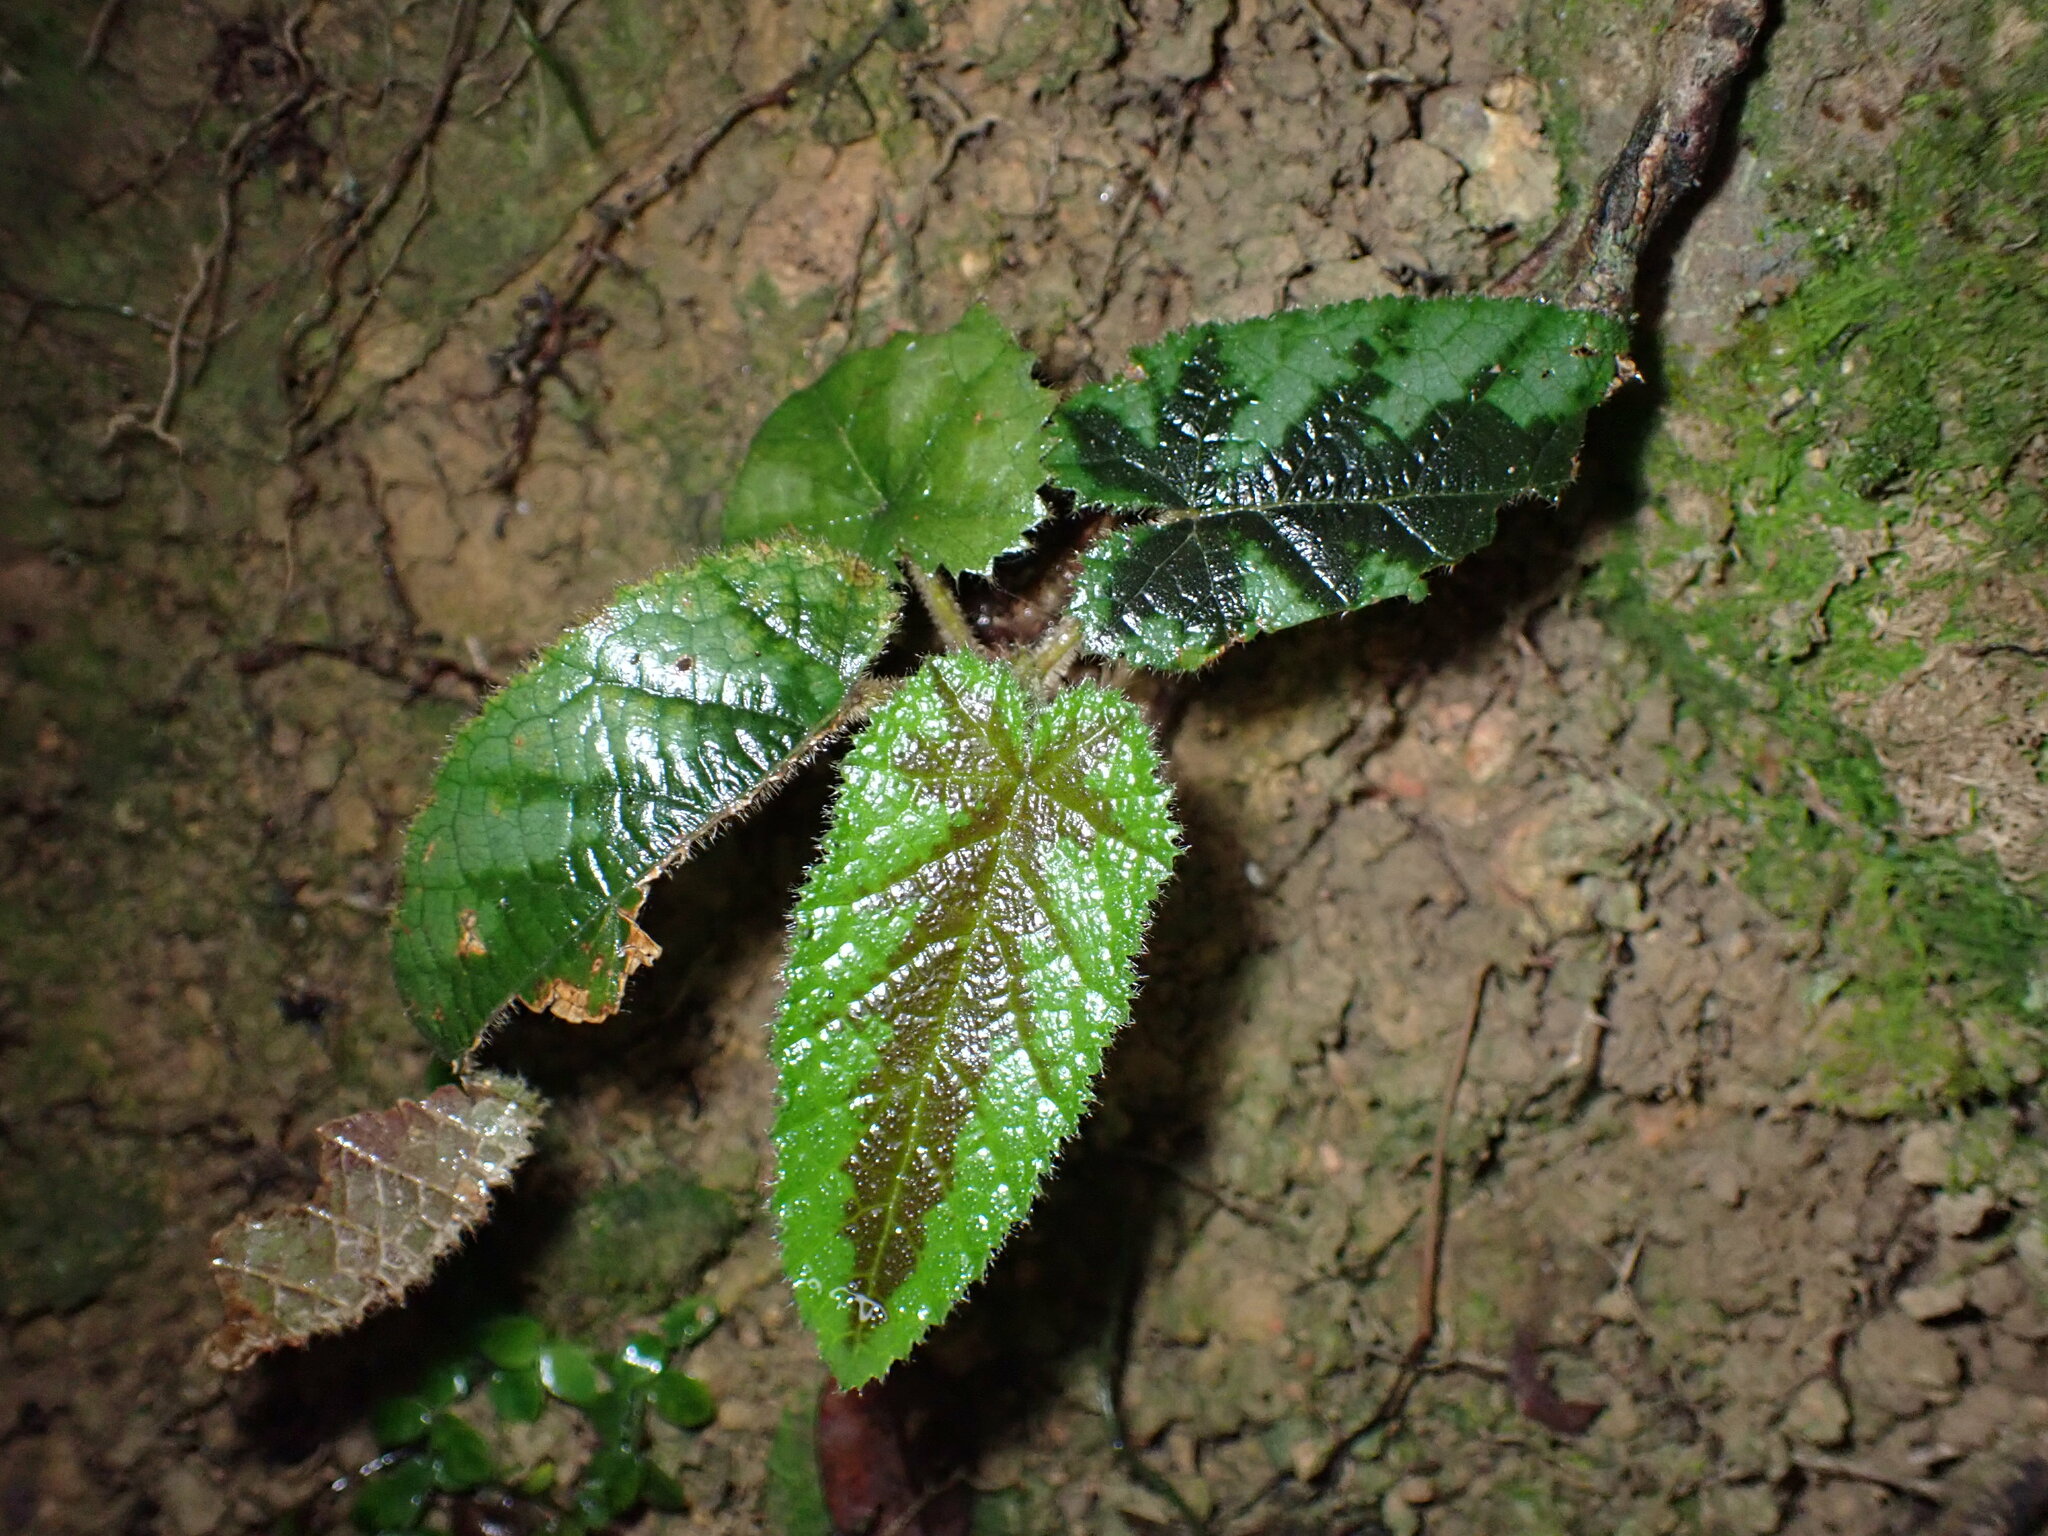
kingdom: Plantae
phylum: Tracheophyta
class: Magnoliopsida
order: Rosales
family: Rosaceae
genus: Rubus
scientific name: Rubus reflexus
